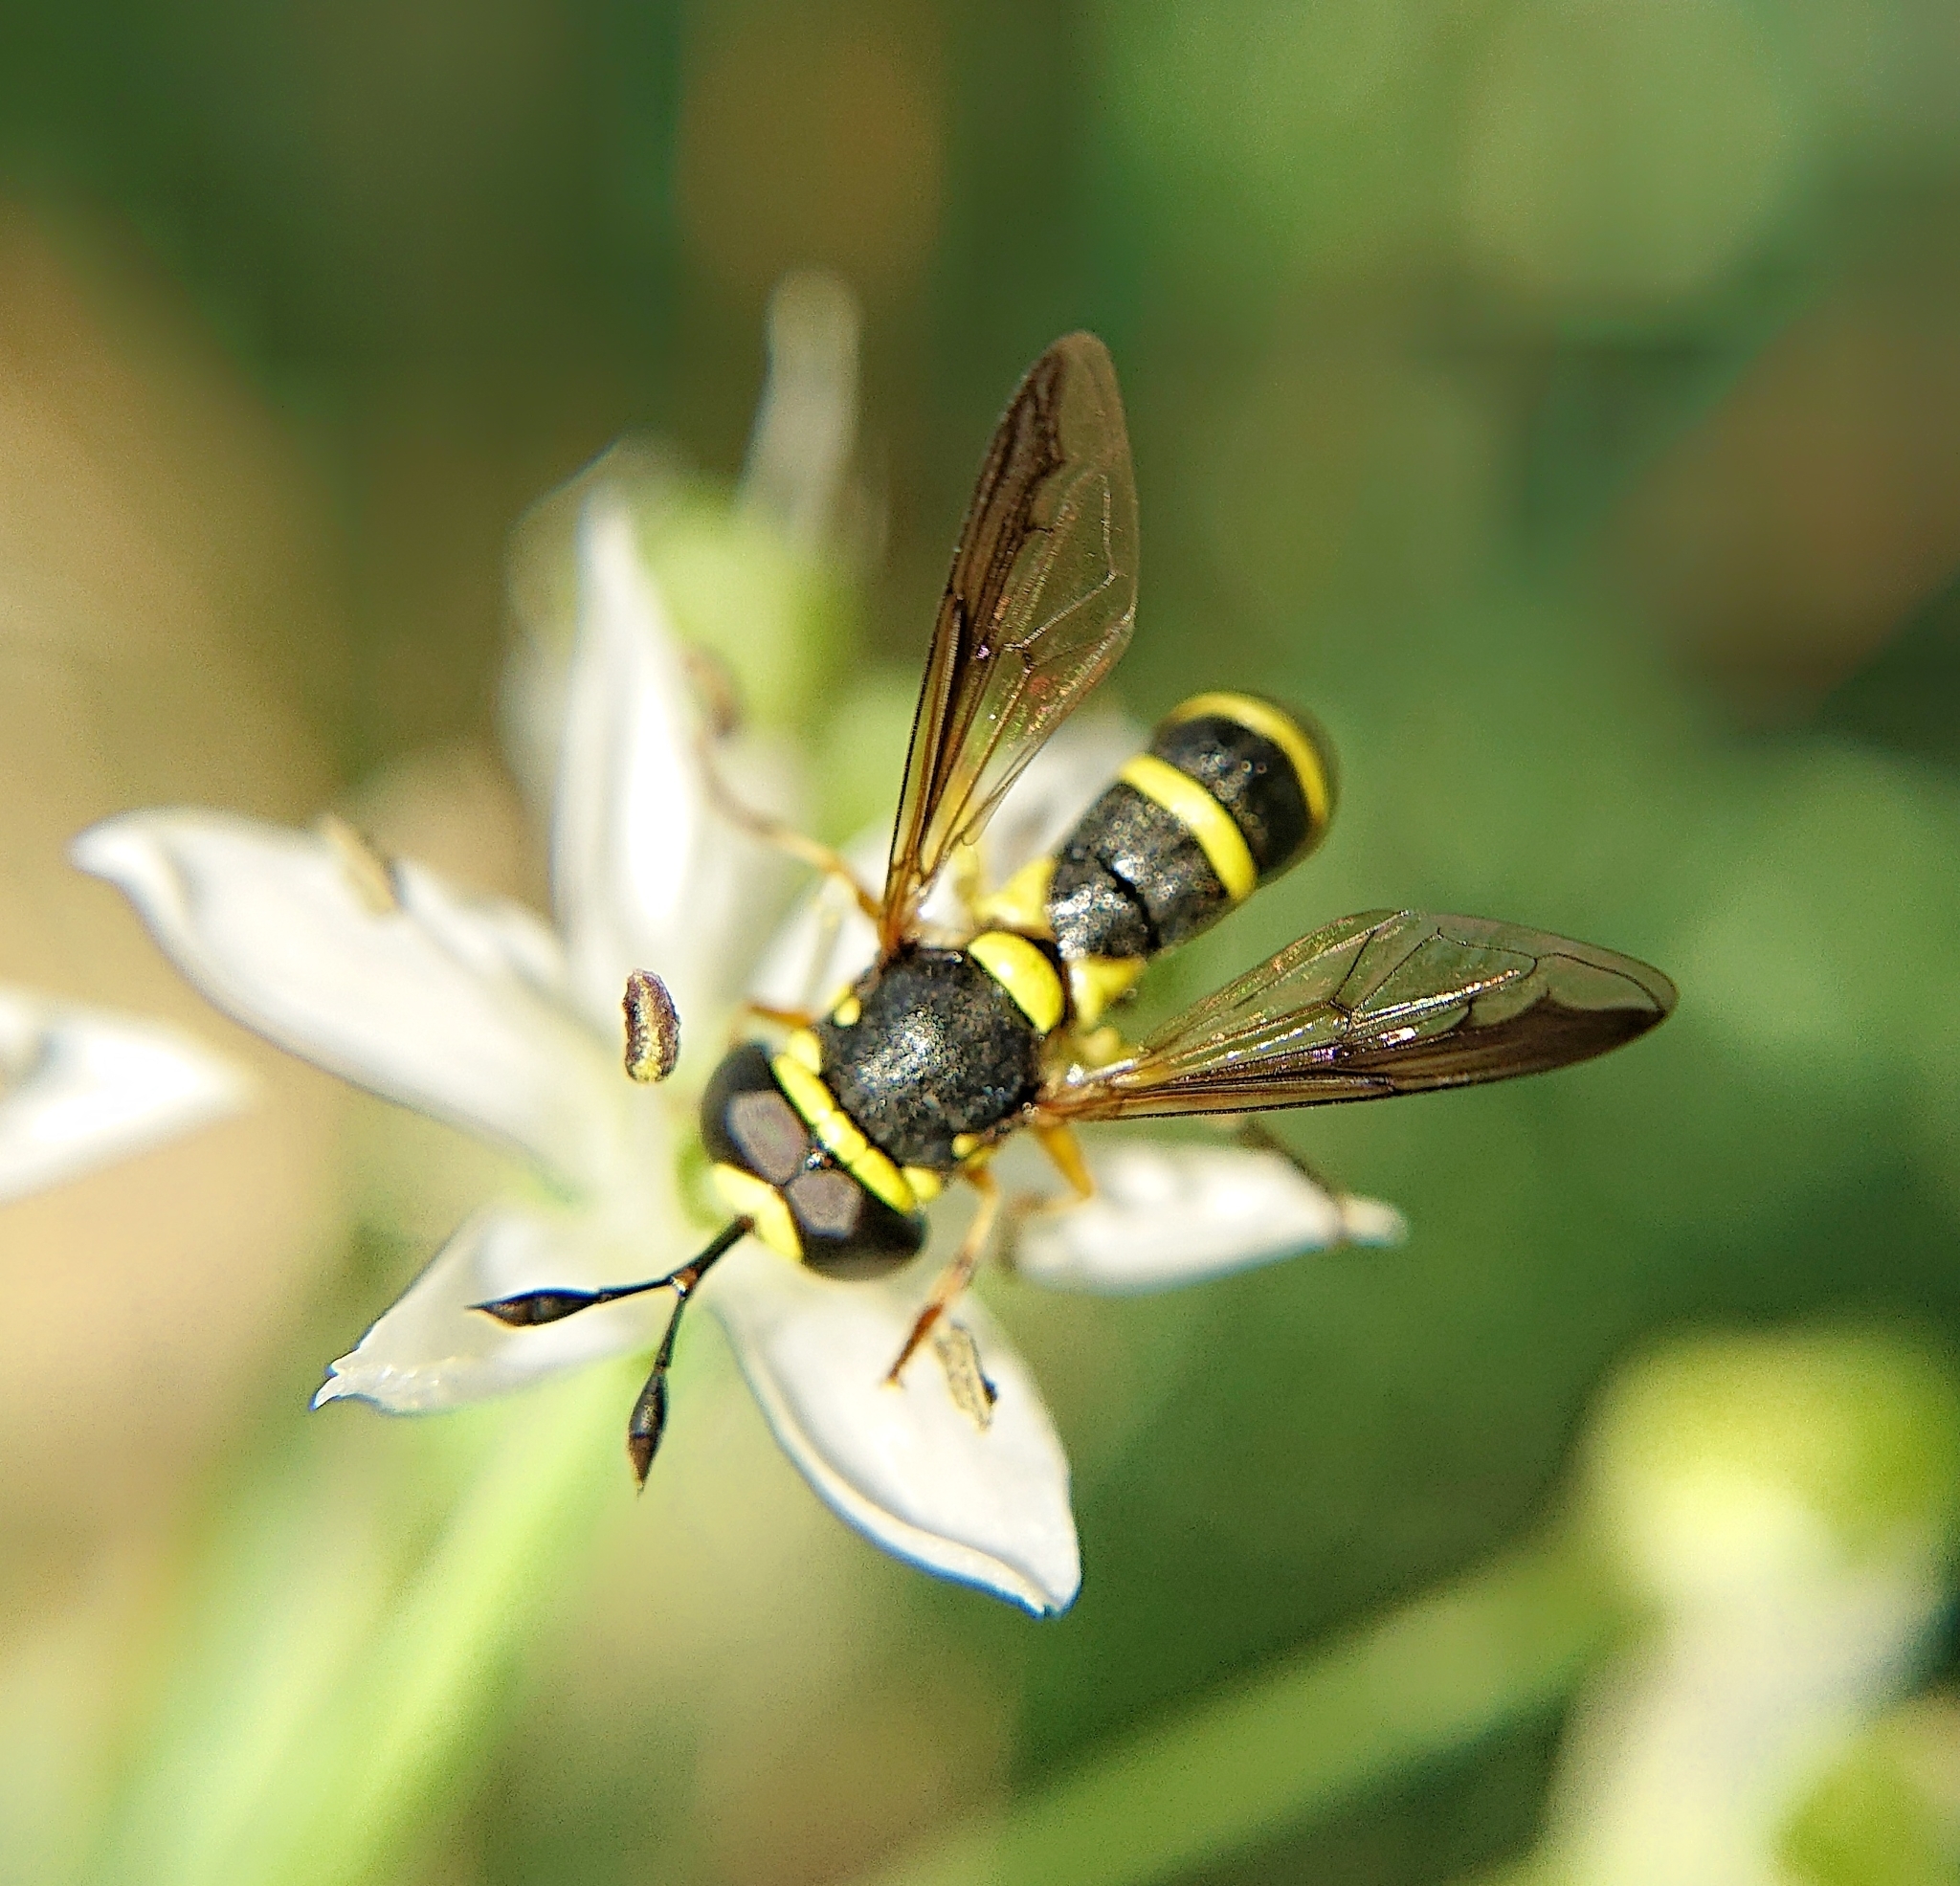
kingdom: Animalia
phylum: Arthropoda
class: Insecta
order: Diptera
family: Syrphidae
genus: Ceriana
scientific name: Ceriana vespiformis
